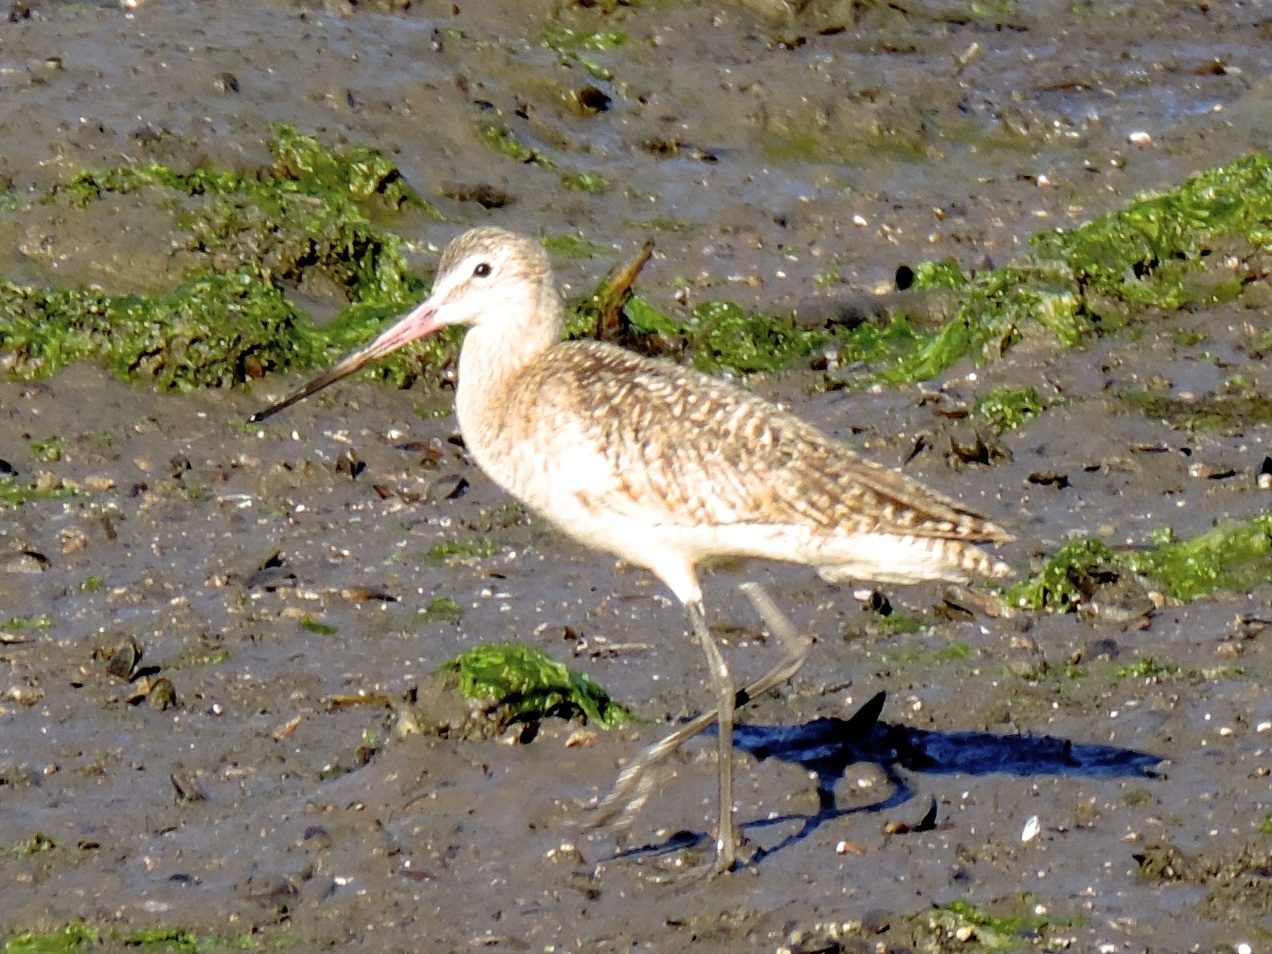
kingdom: Animalia
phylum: Chordata
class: Aves
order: Charadriiformes
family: Scolopacidae
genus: Limosa
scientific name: Limosa fedoa
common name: Marbled godwit
